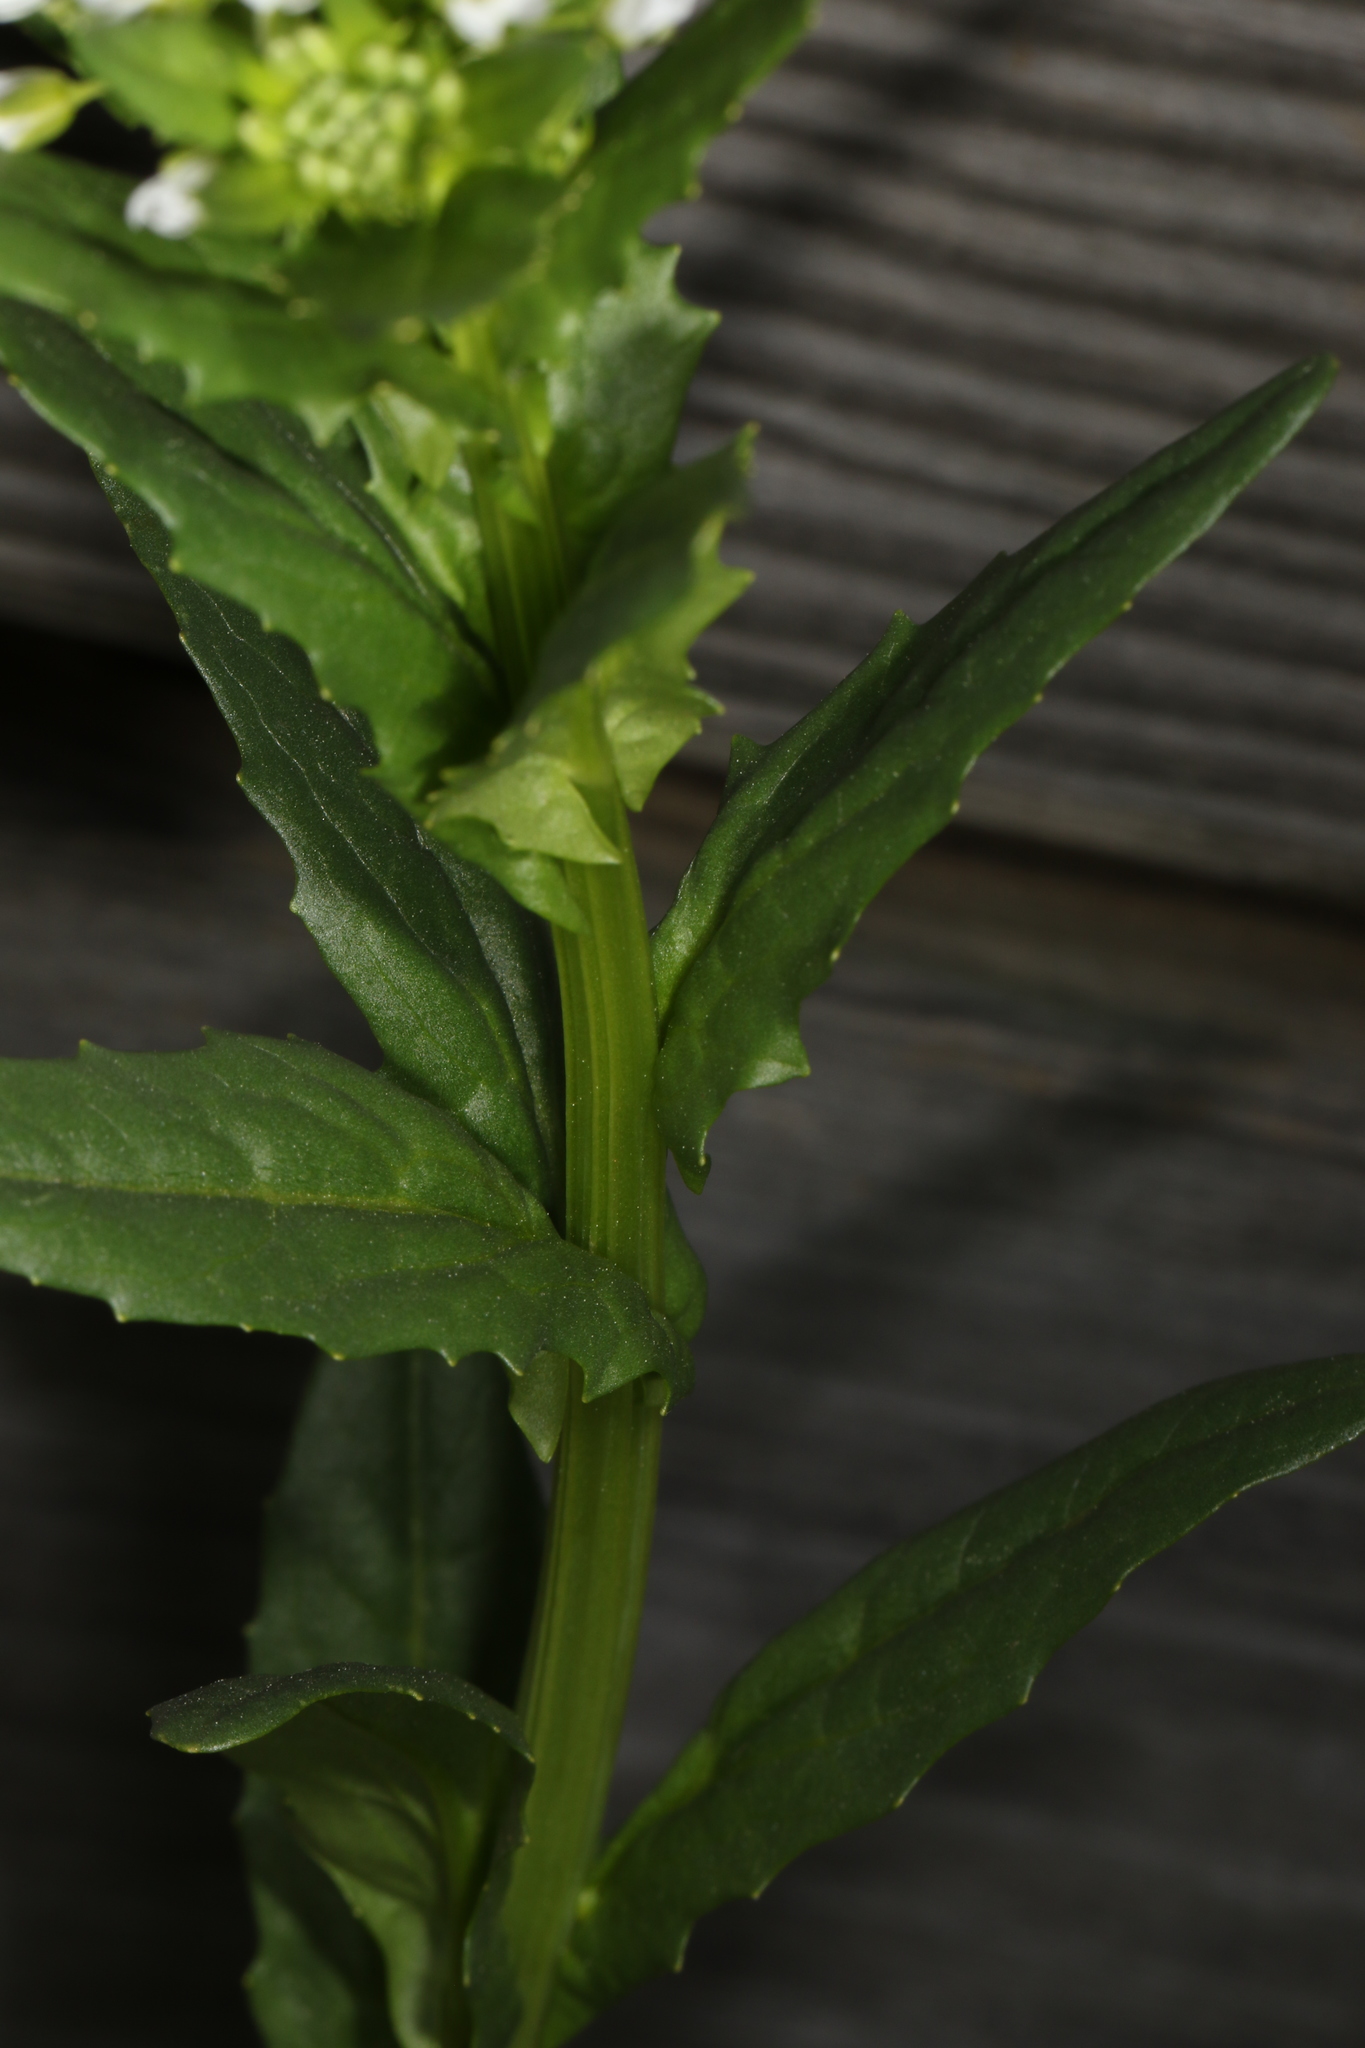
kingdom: Plantae
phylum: Tracheophyta
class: Magnoliopsida
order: Brassicales
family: Brassicaceae
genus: Thlaspi
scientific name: Thlaspi arvense
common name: Field pennycress
